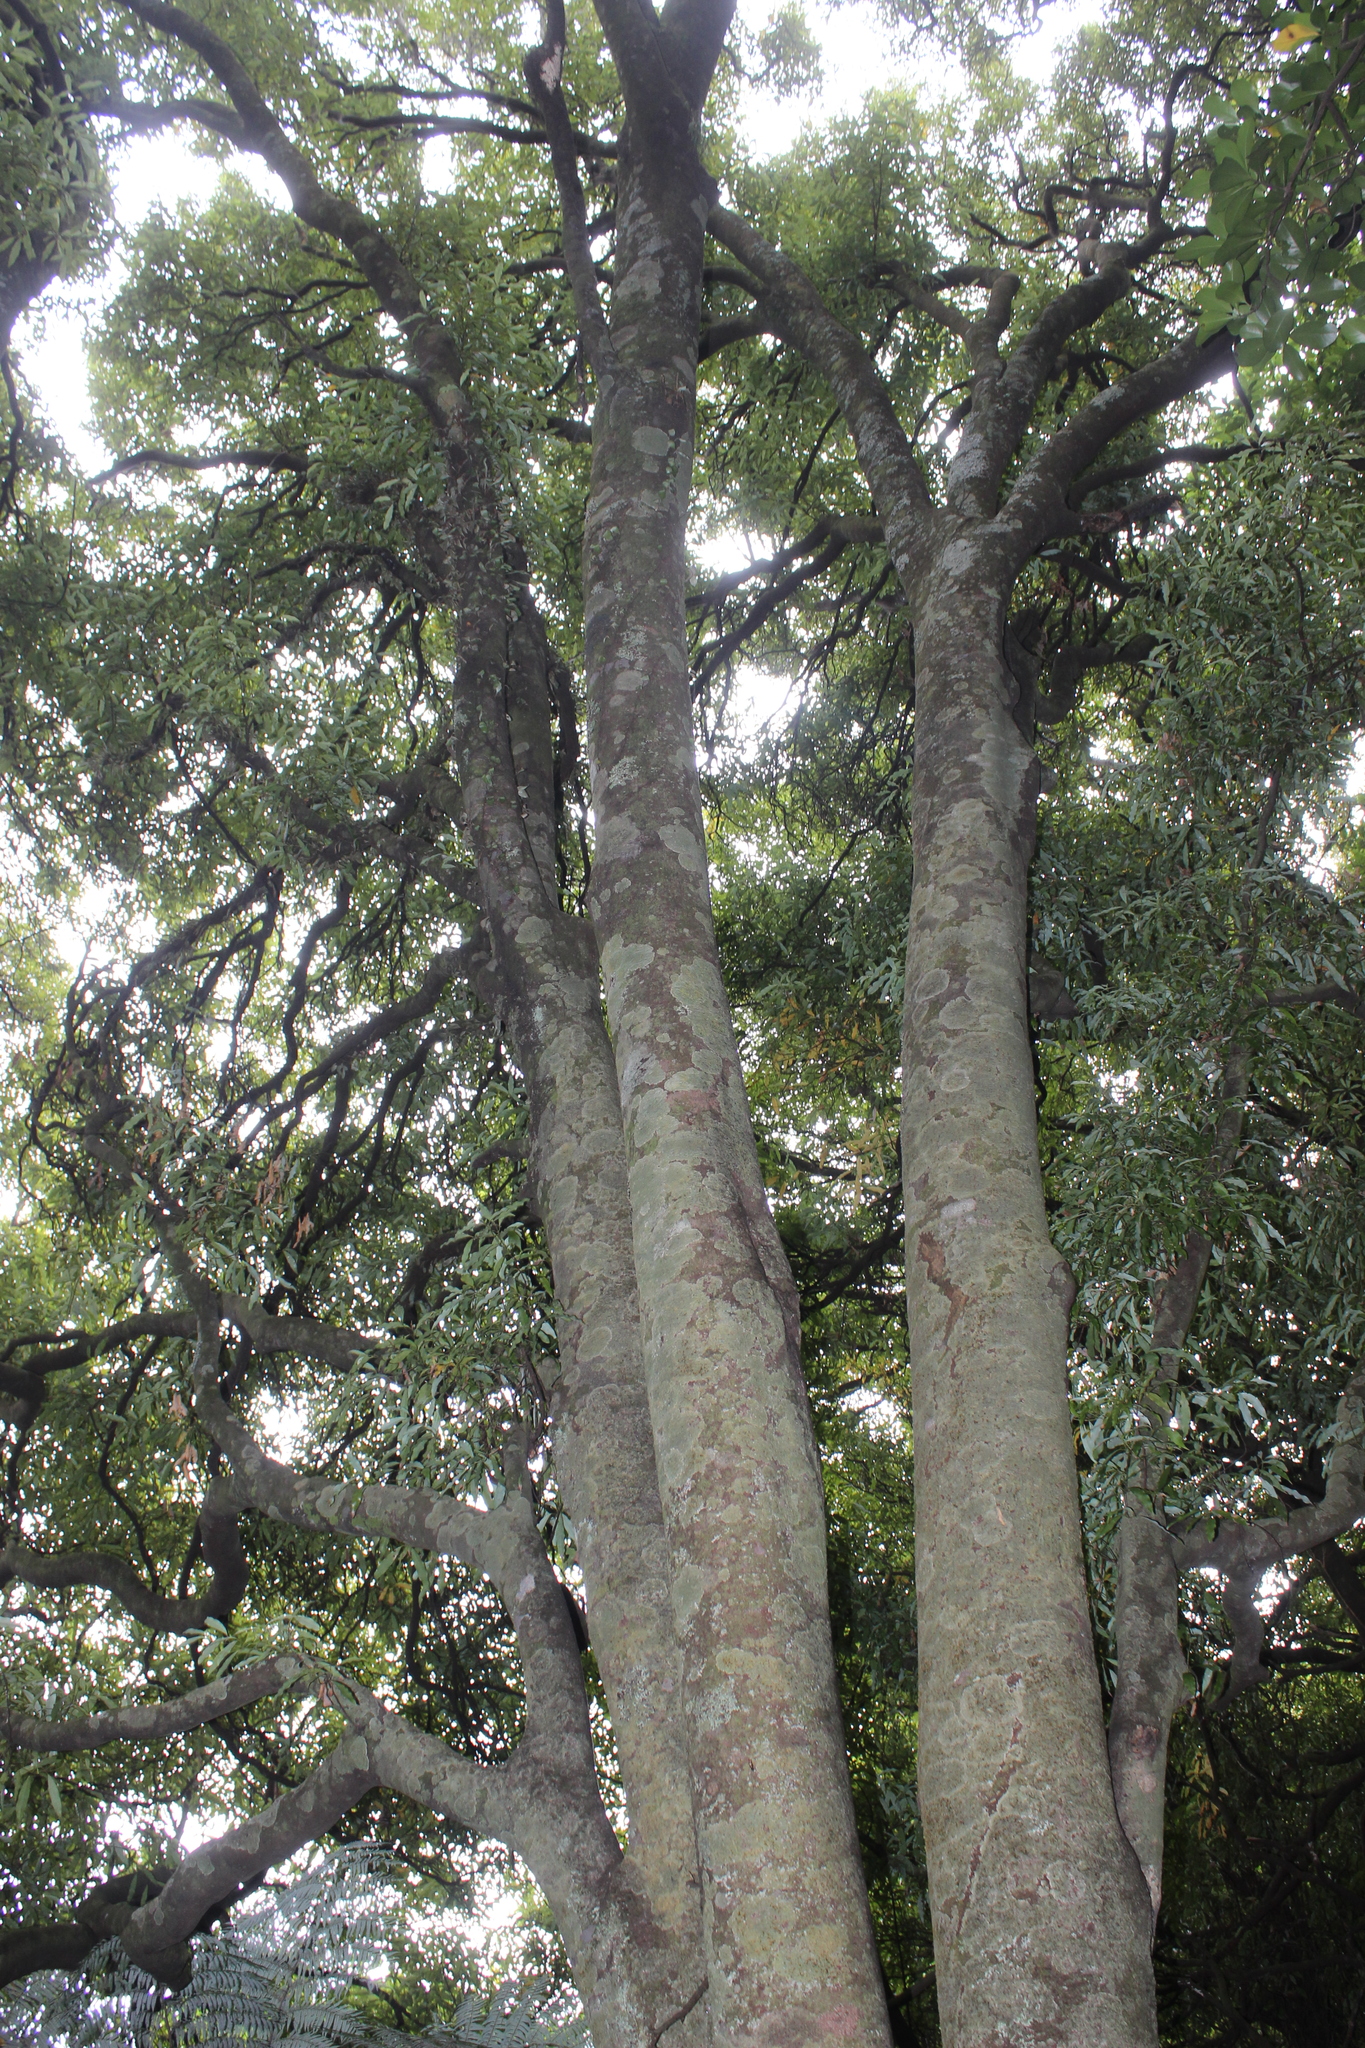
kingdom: Plantae
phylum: Tracheophyta
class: Magnoliopsida
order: Laurales
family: Lauraceae
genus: Beilschmiedia
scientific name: Beilschmiedia tawa
